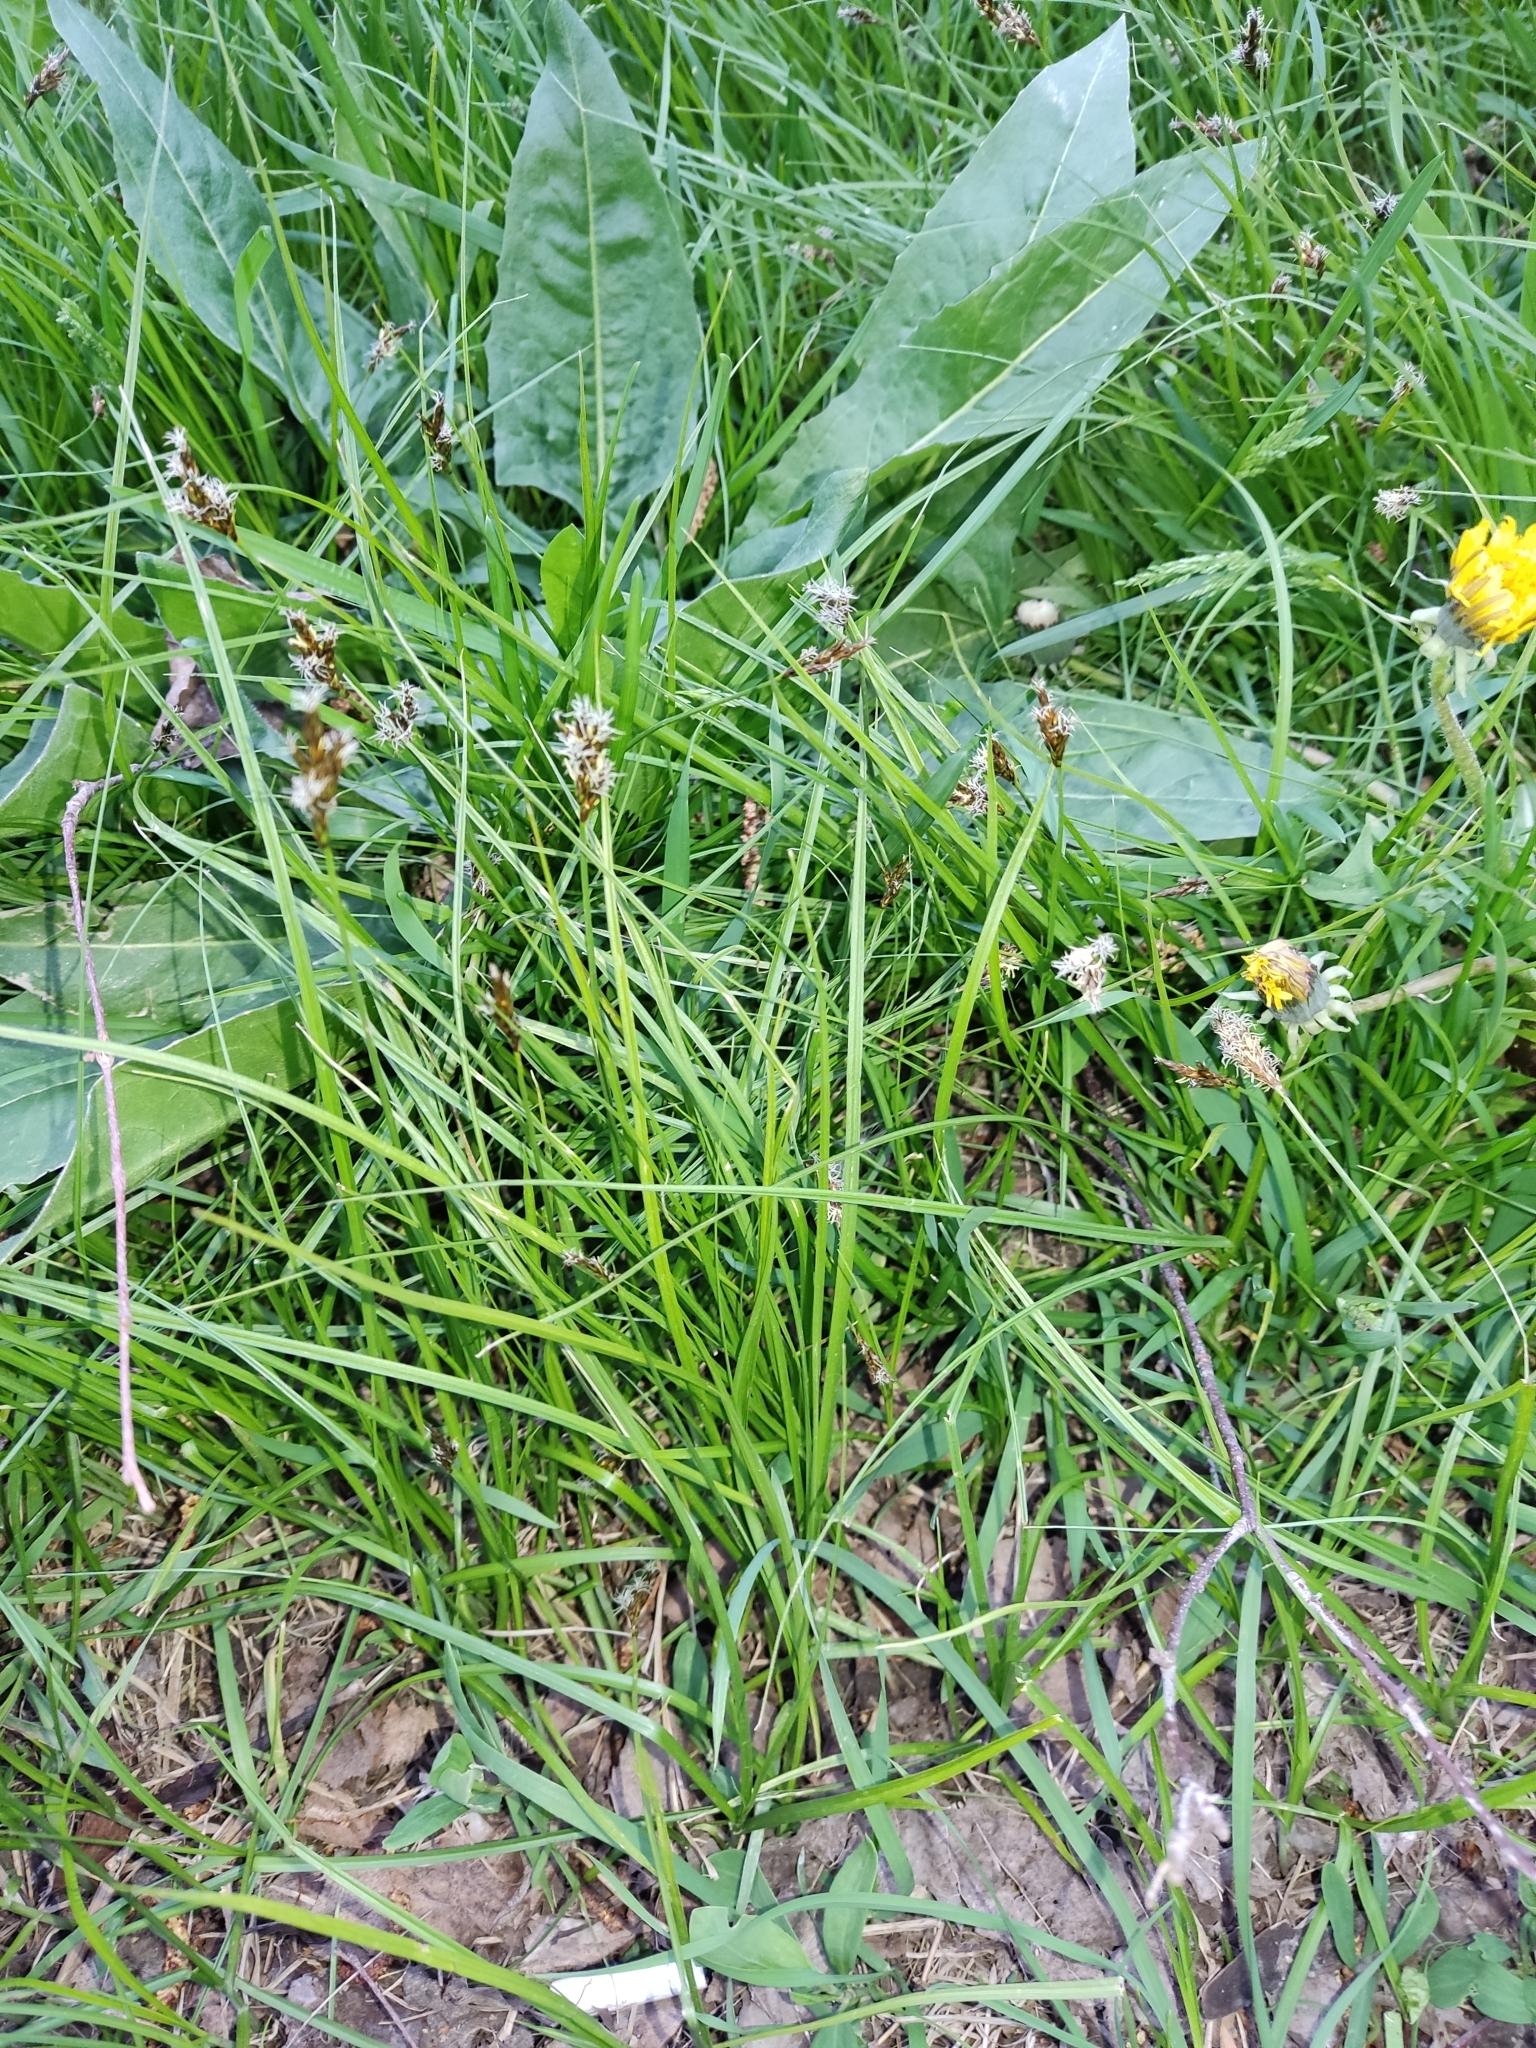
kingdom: Plantae
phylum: Tracheophyta
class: Liliopsida
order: Poales
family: Cyperaceae
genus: Carex
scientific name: Carex leporina
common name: Oval sedge
